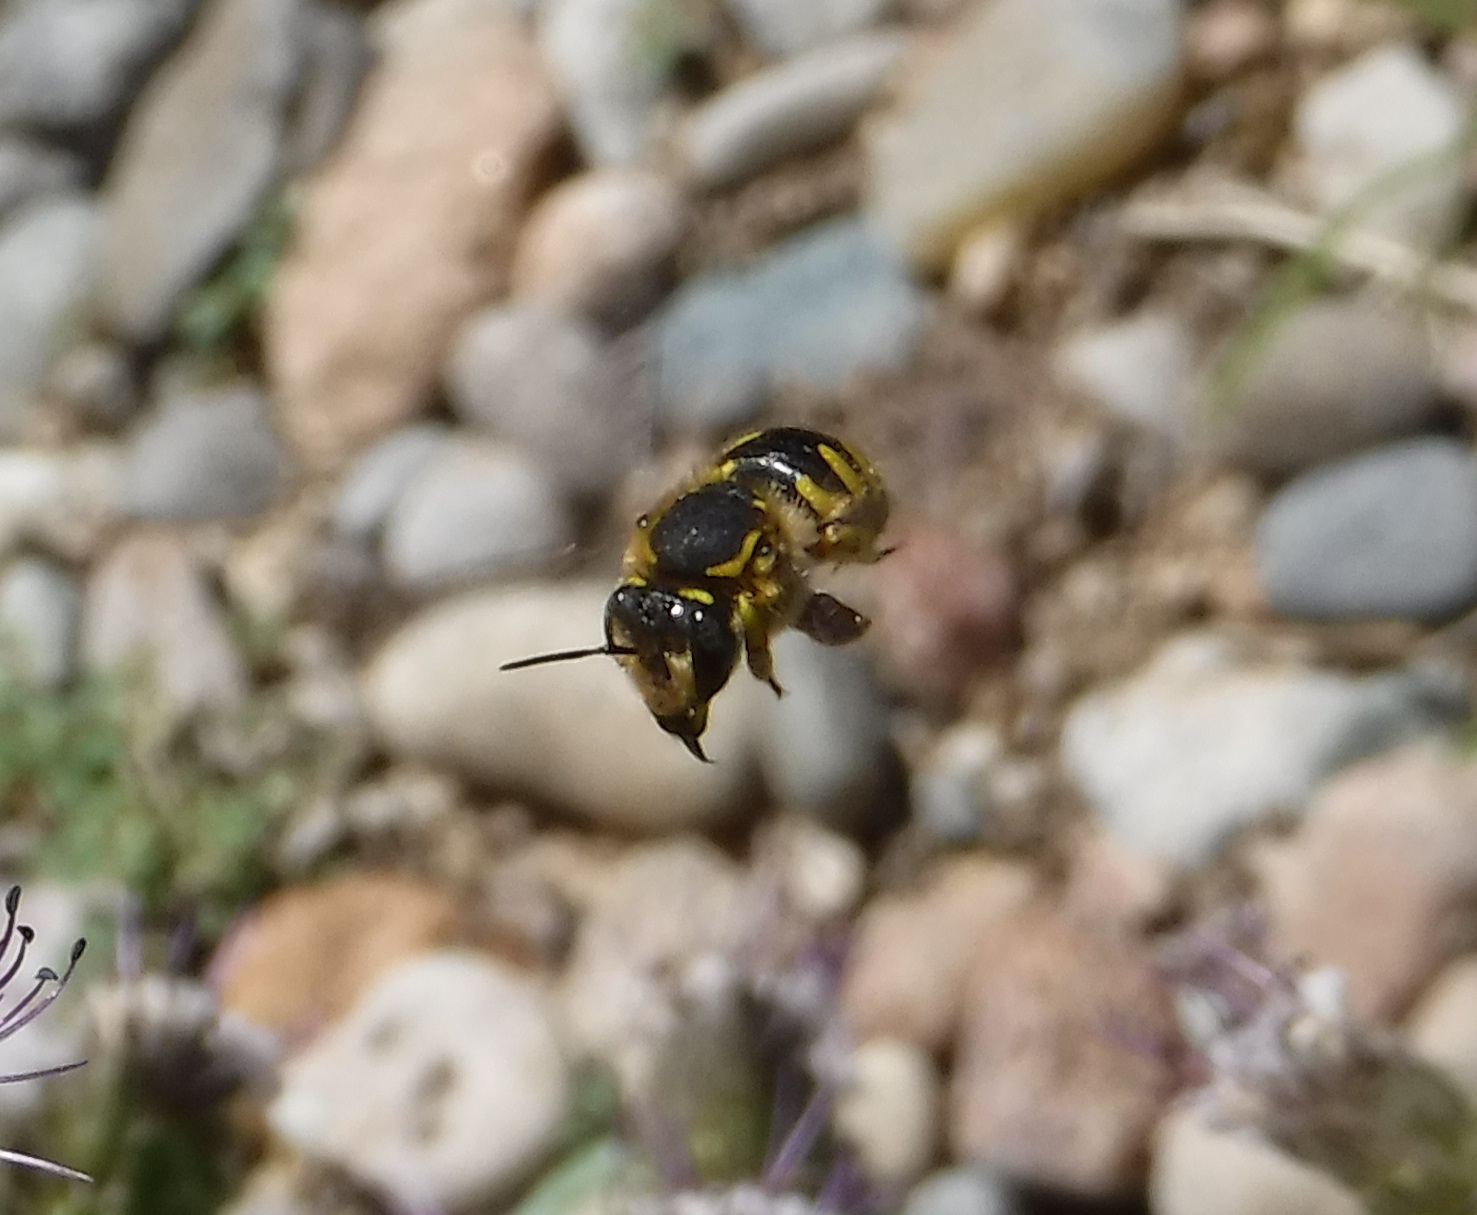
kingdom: Animalia
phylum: Arthropoda
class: Insecta
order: Hymenoptera
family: Megachilidae
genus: Anthidium
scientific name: Anthidium manicatum
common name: Wool carder bee
